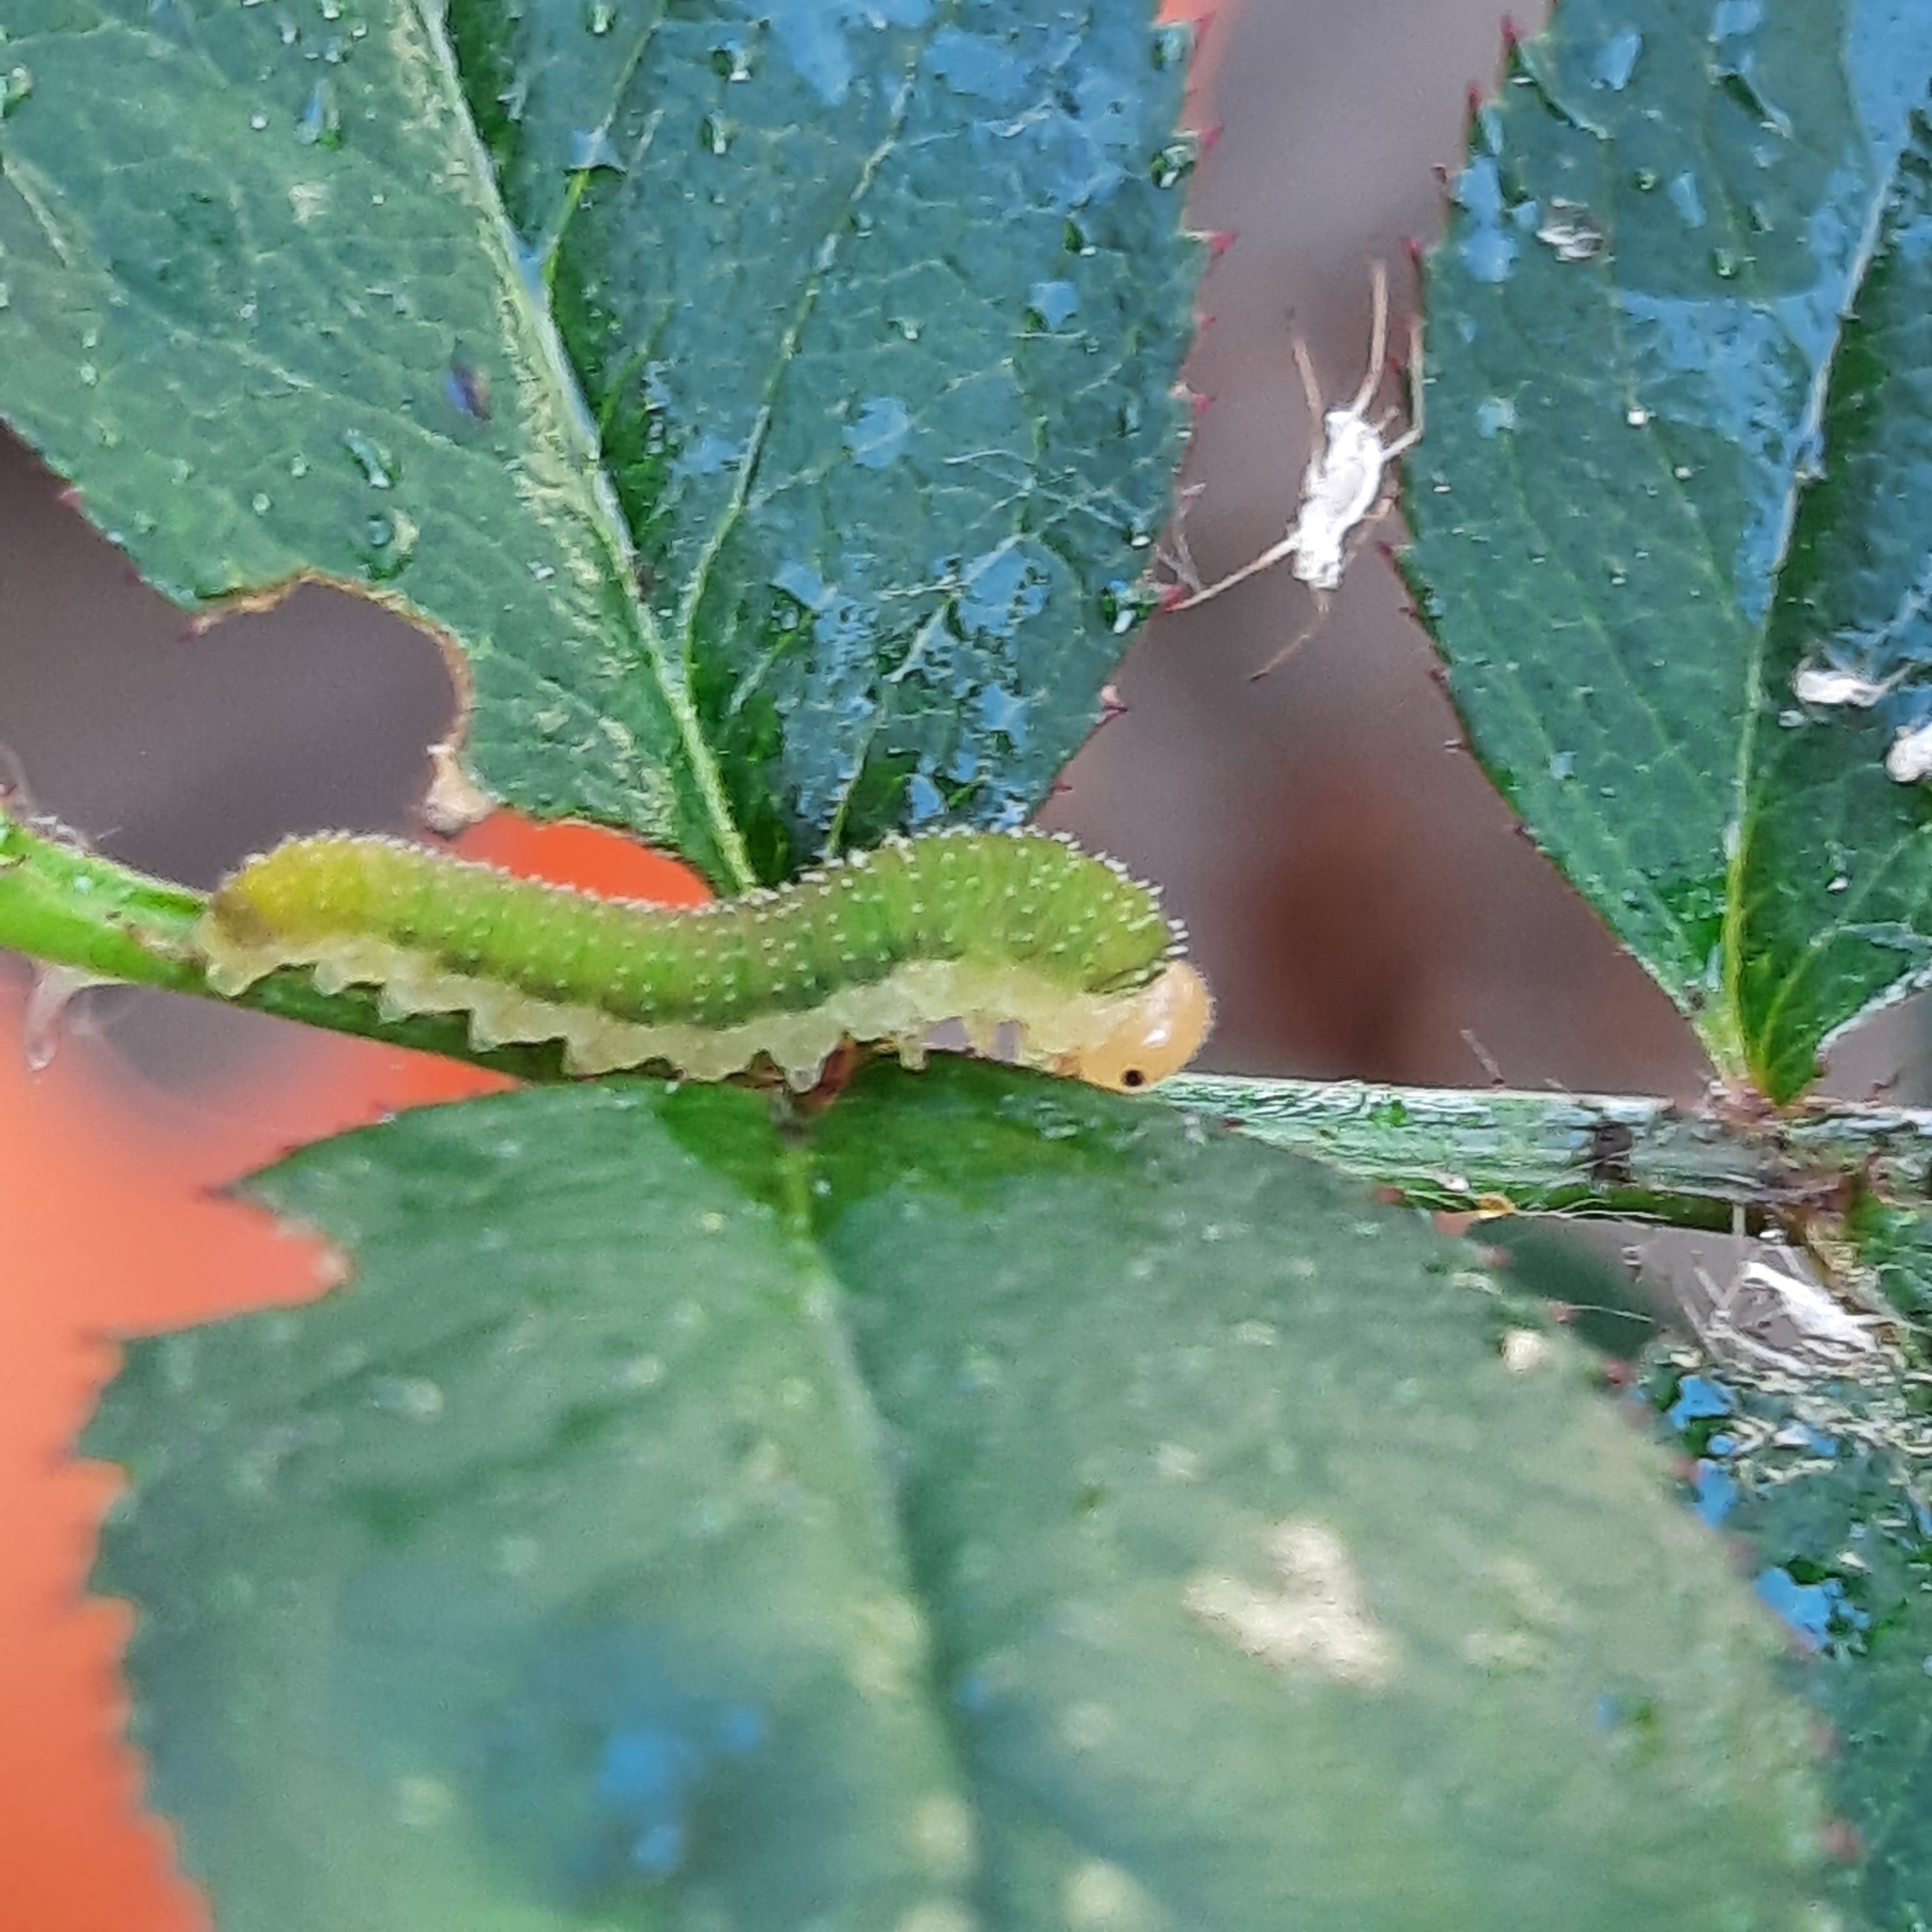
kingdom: Animalia
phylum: Arthropoda
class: Insecta
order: Hymenoptera
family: Tenthredinidae
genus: Allantus
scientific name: Allantus
